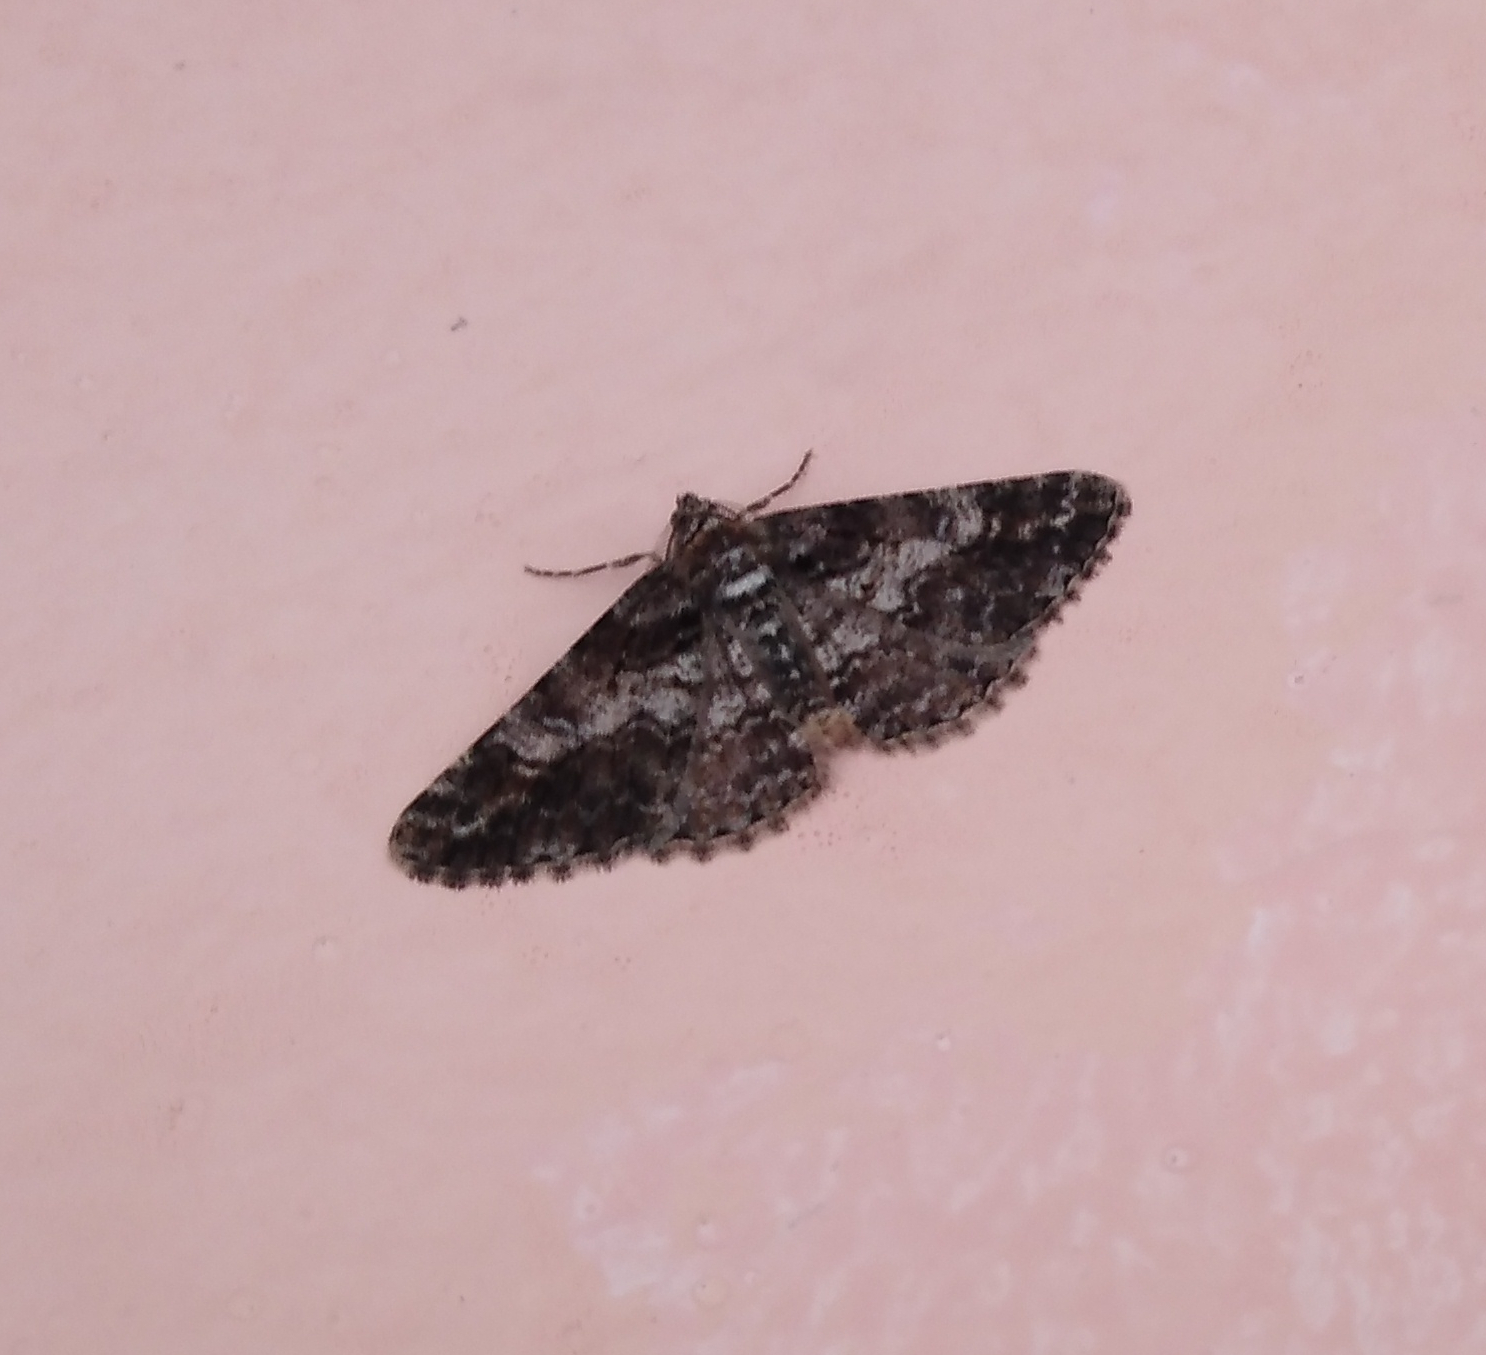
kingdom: Animalia
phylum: Arthropoda
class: Insecta
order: Lepidoptera
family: Geometridae
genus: Cleora
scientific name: Cleora cinctaria
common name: Ringed carpet
